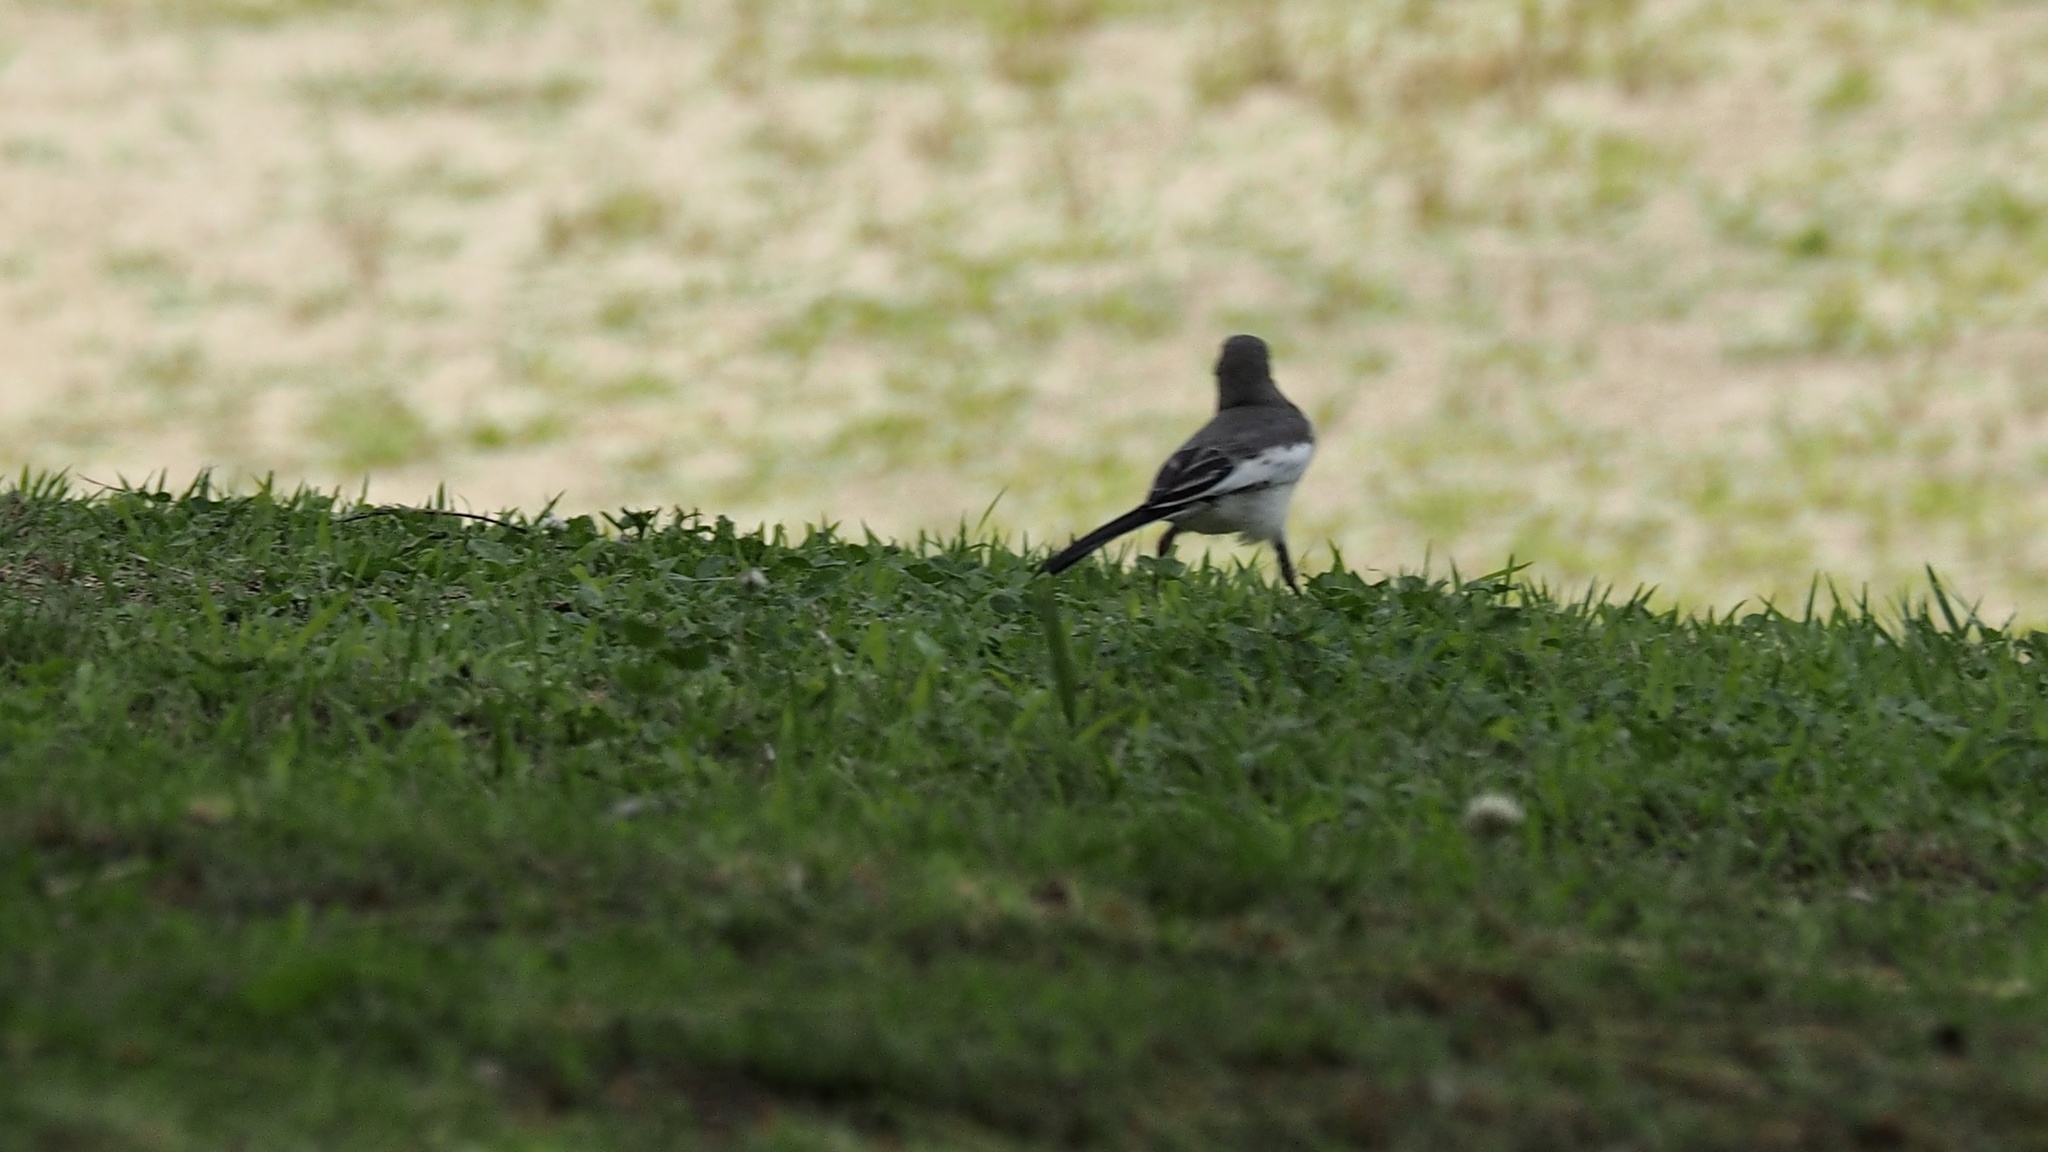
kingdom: Animalia
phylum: Chordata
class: Aves
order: Passeriformes
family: Motacillidae
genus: Motacilla
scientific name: Motacilla grandis
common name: Japanese wagtail
